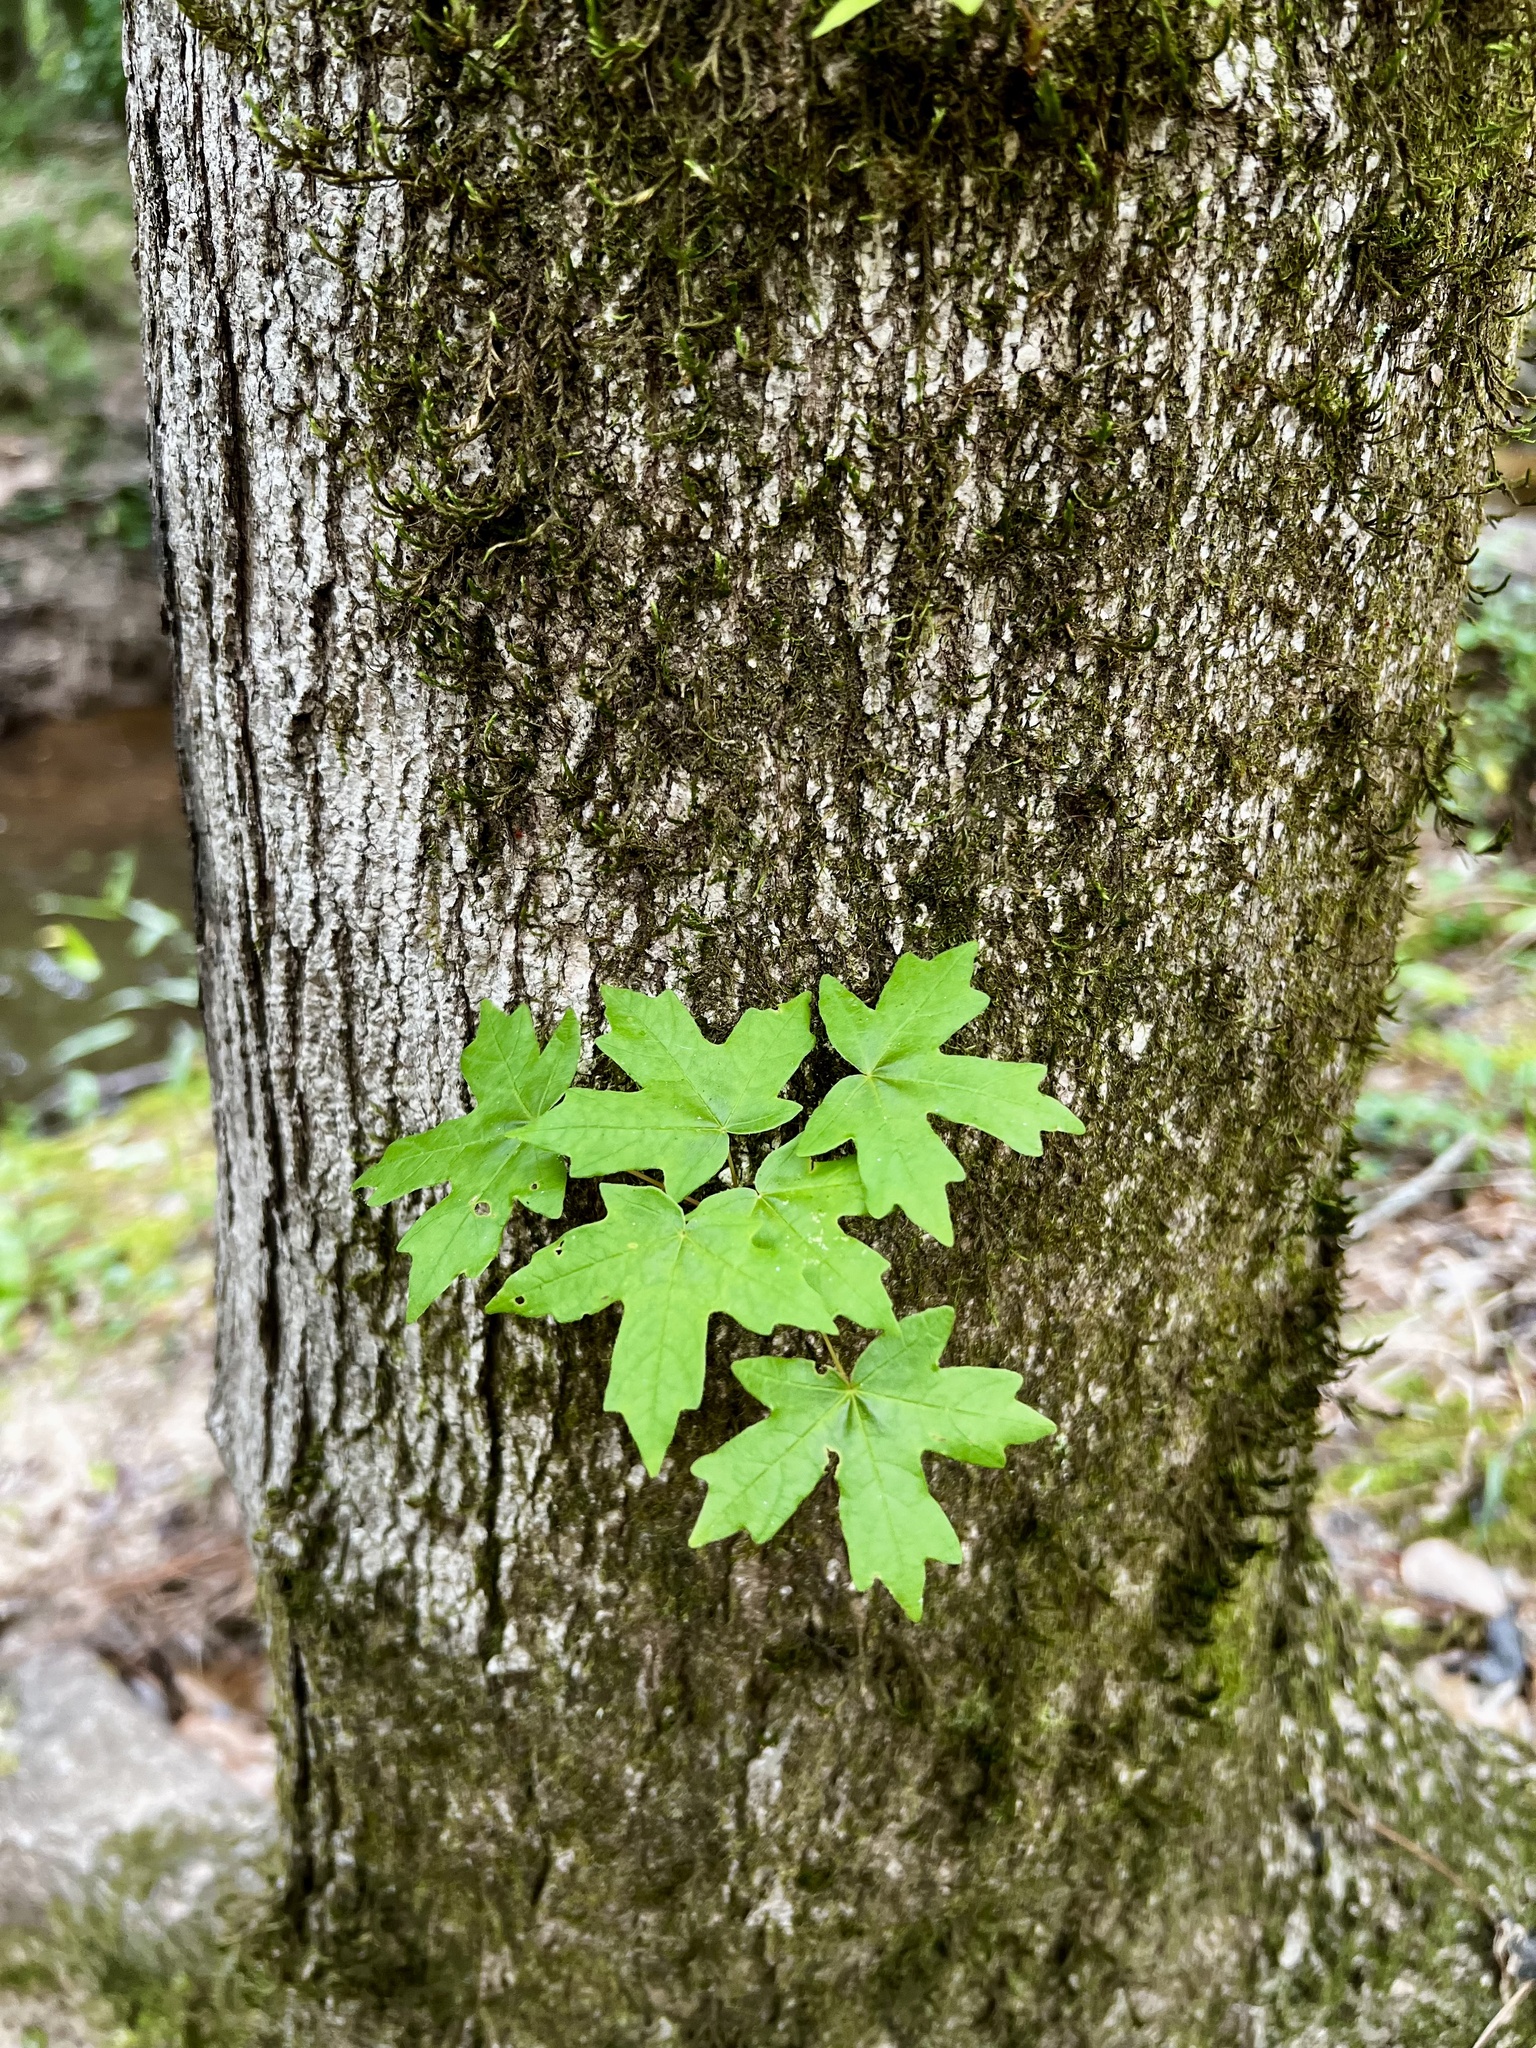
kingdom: Plantae
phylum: Tracheophyta
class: Magnoliopsida
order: Sapindales
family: Sapindaceae
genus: Acer
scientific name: Acer floridanum
